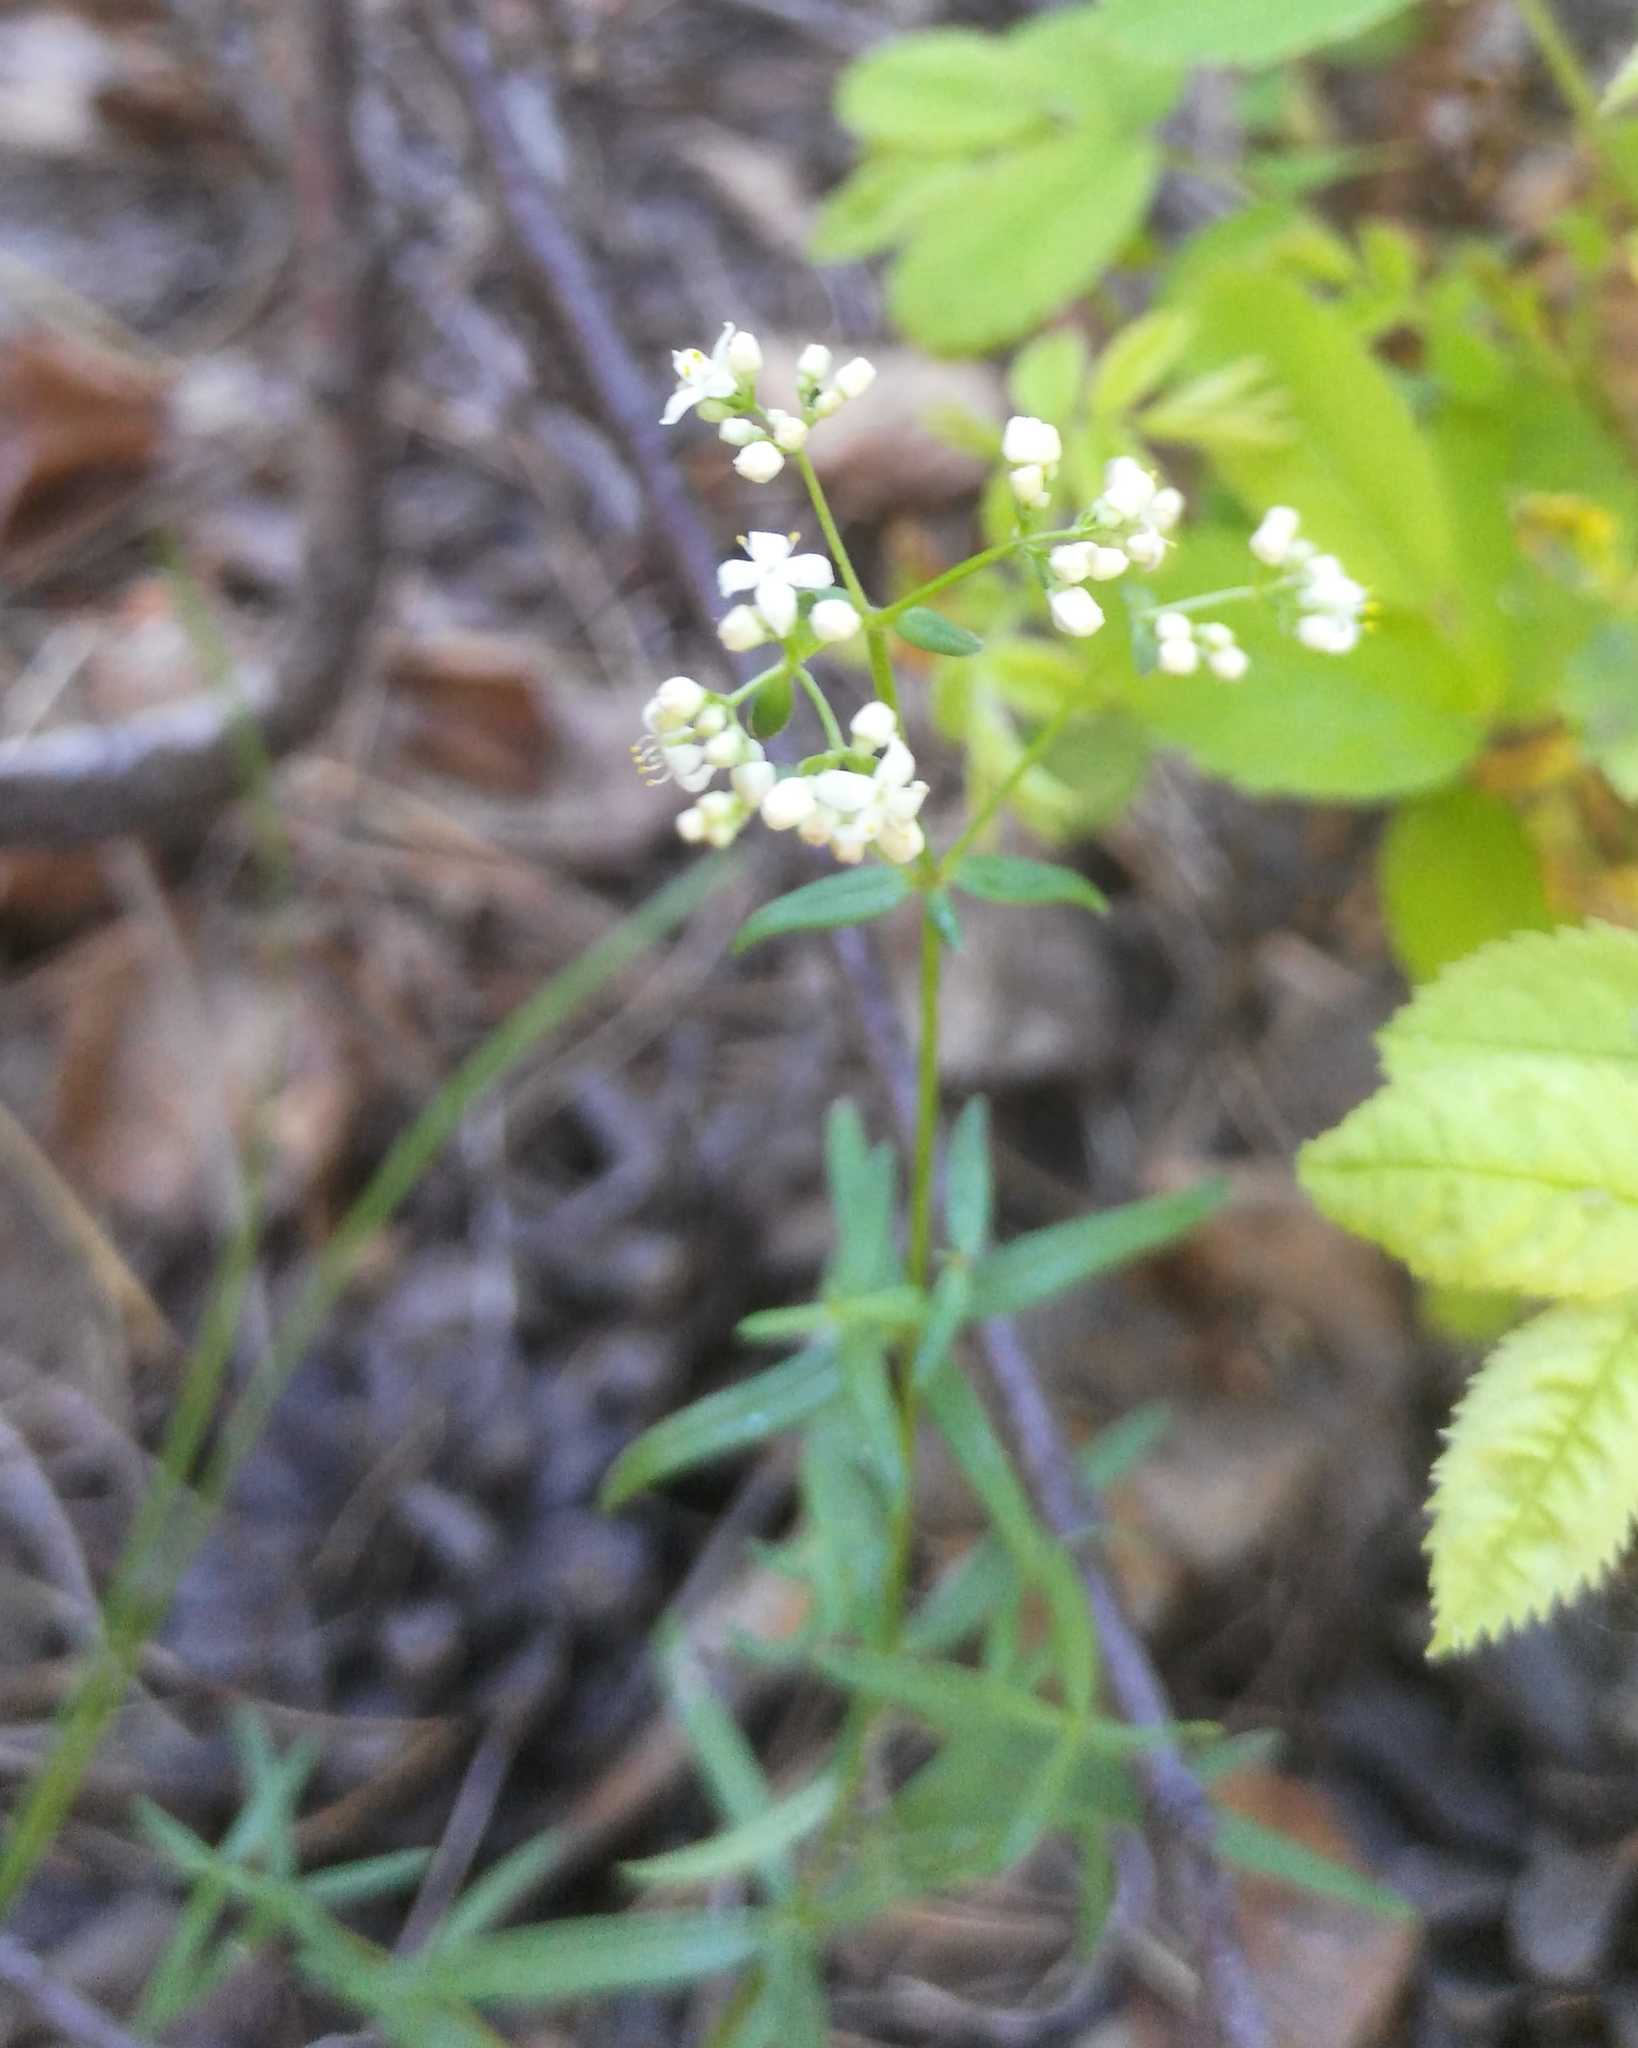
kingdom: Plantae
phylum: Tracheophyta
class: Magnoliopsida
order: Gentianales
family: Rubiaceae
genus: Galium
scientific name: Galium boreale
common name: Northern bedstraw
